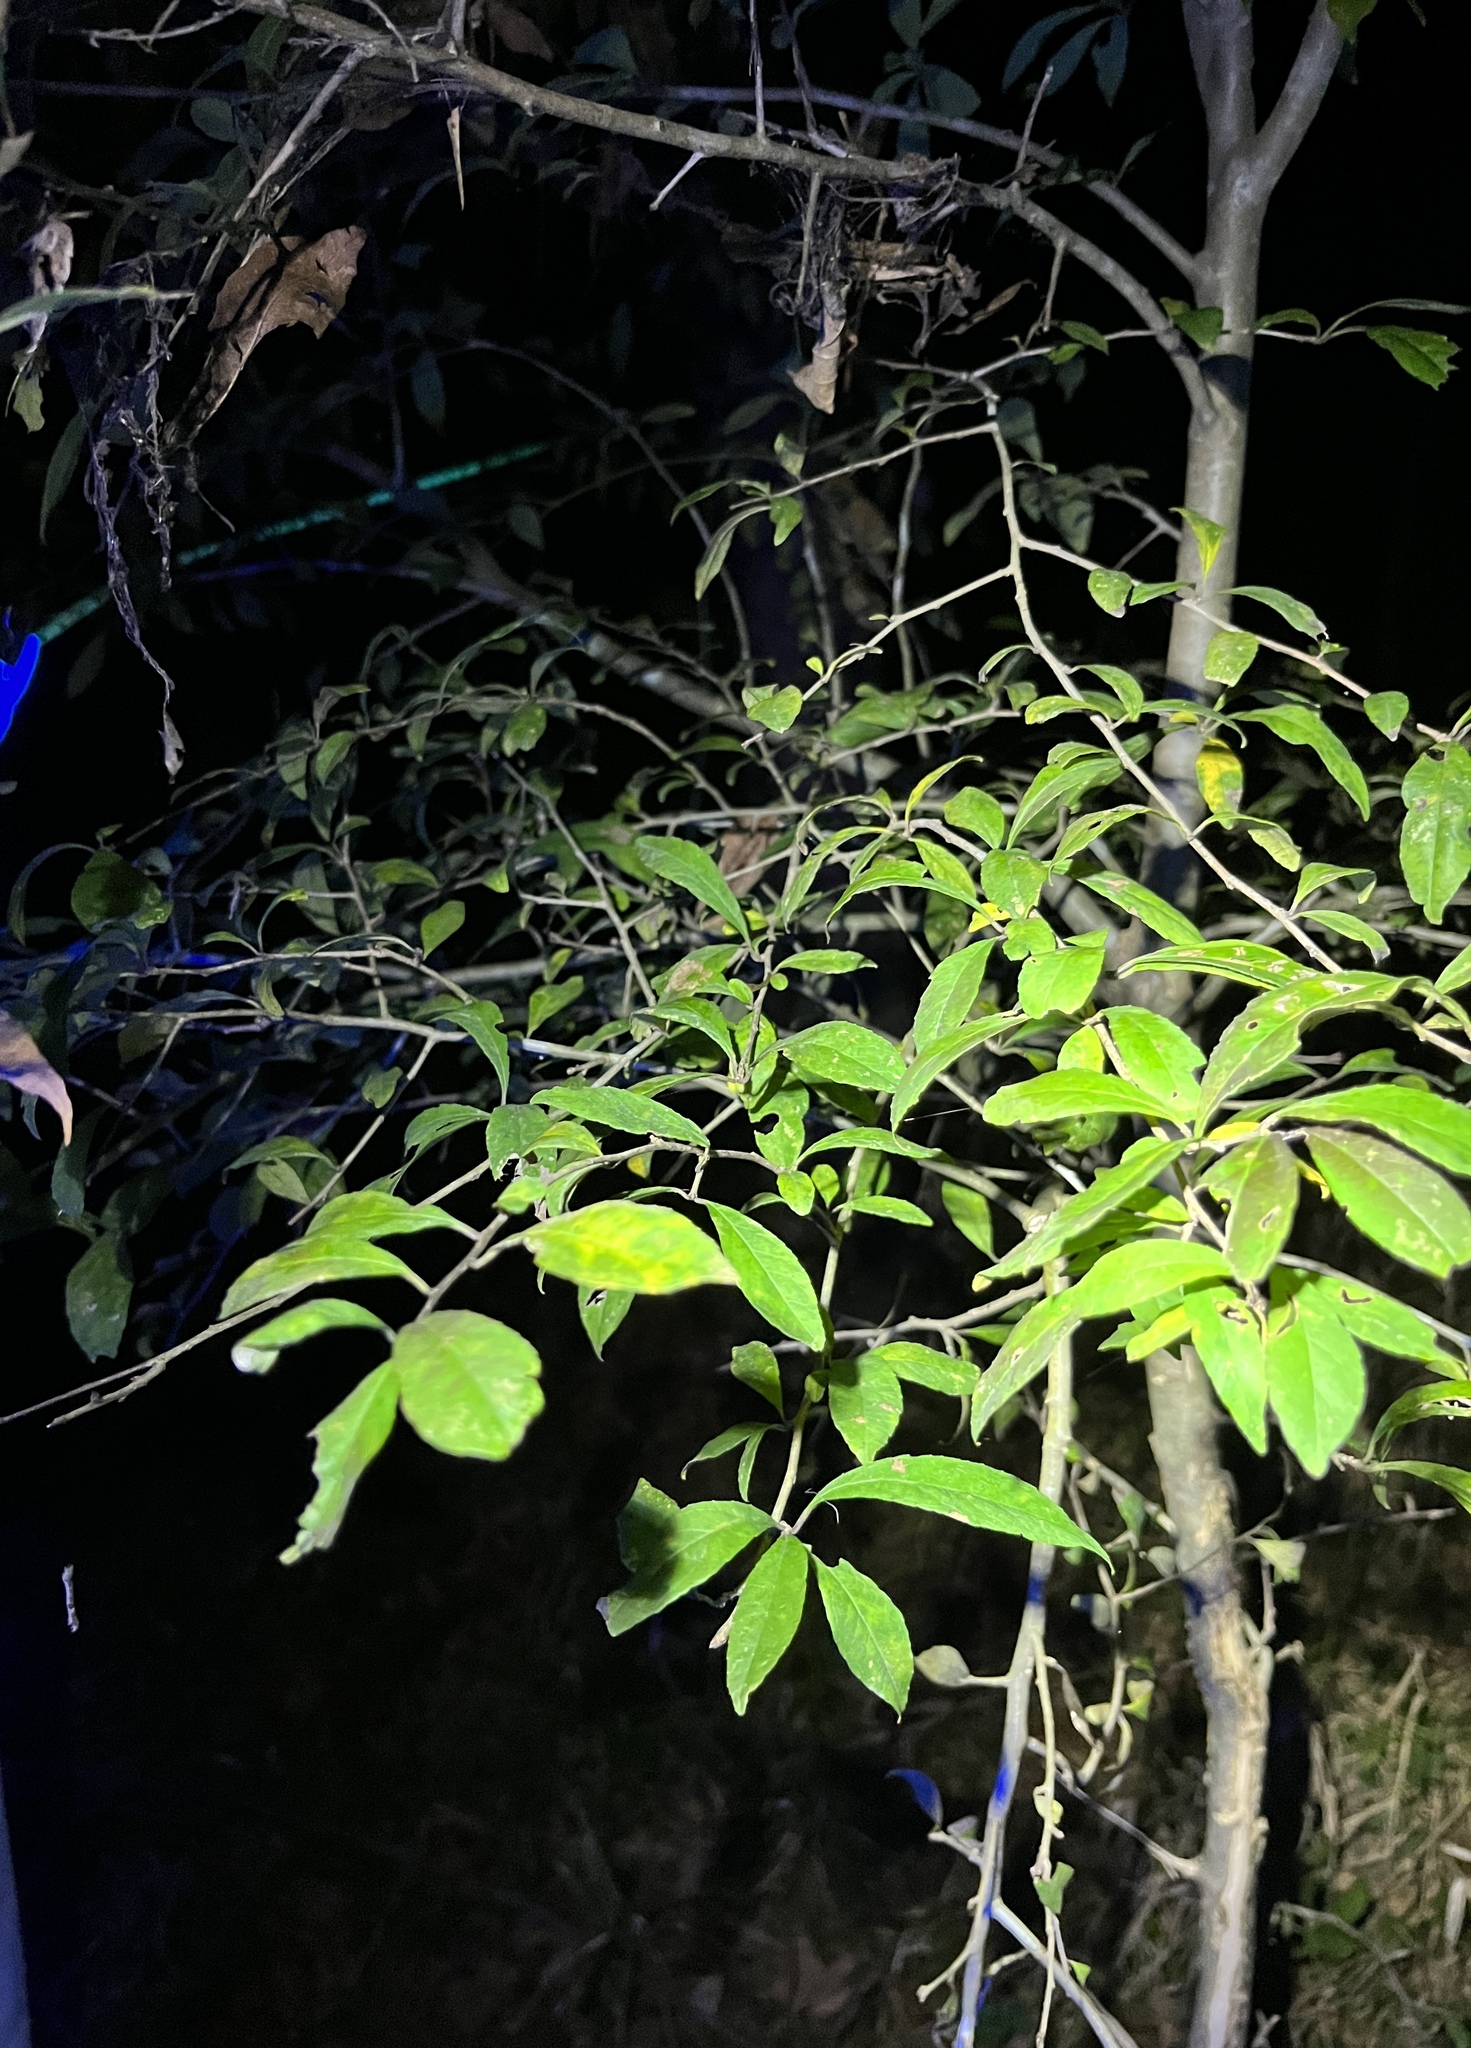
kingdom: Plantae
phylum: Tracheophyta
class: Magnoliopsida
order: Aquifoliales
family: Aquifoliaceae
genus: Ilex
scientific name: Ilex decidua
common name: Possum-haw
